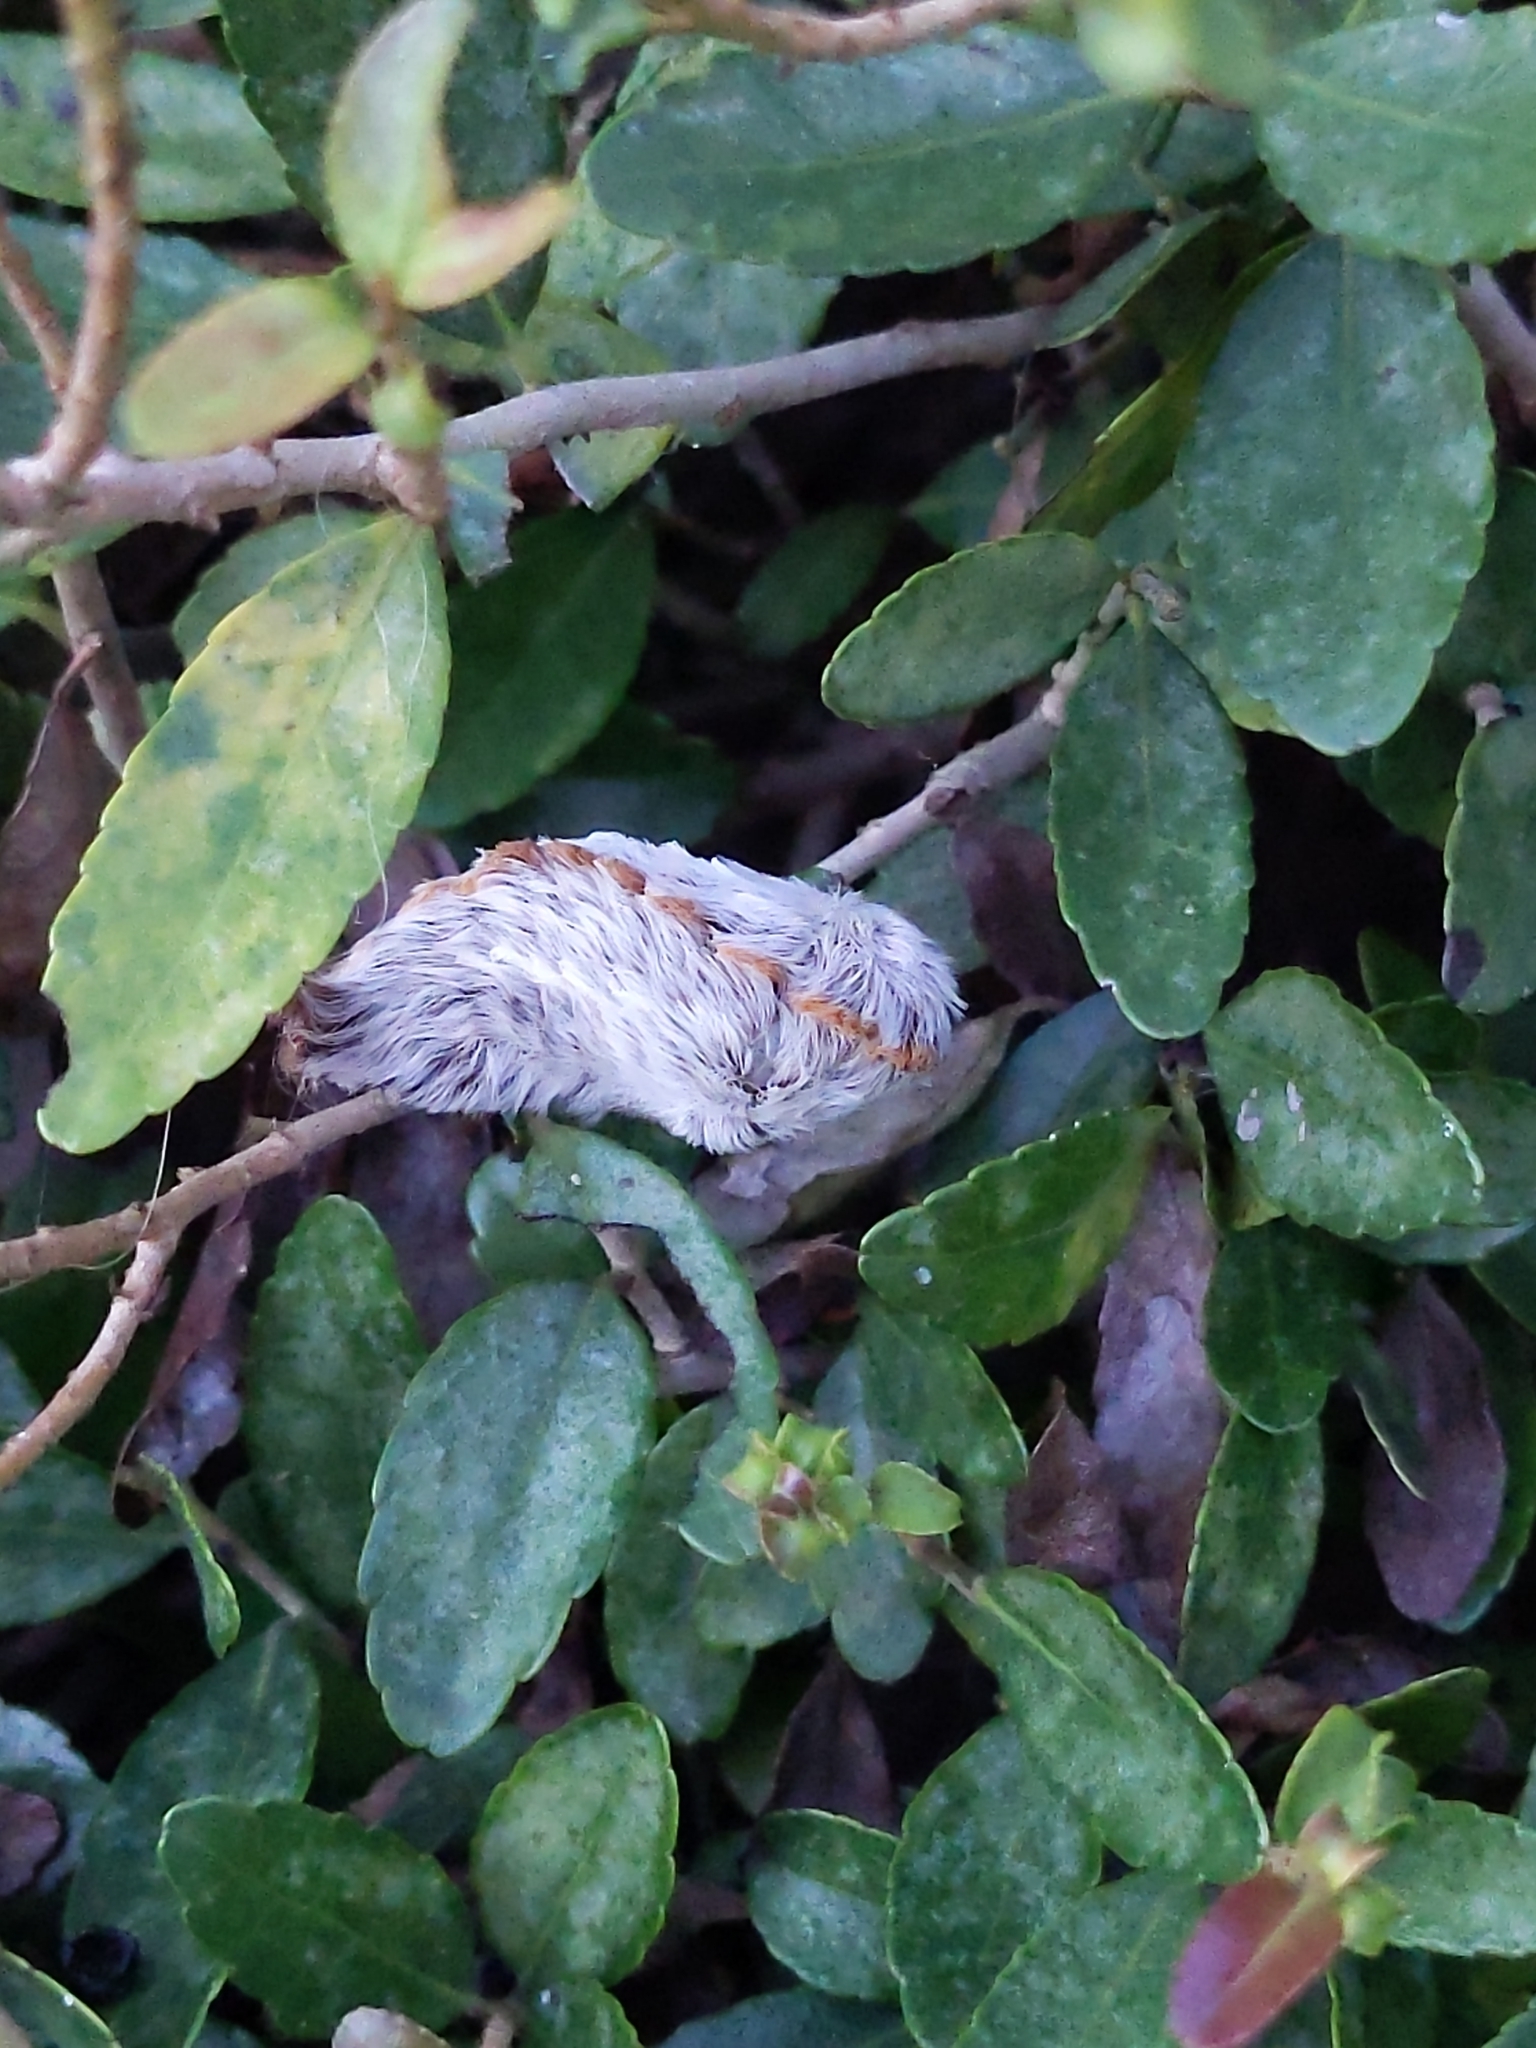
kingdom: Animalia
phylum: Arthropoda
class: Insecta
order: Lepidoptera
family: Megalopygidae
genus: Megalopyge
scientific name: Megalopyge opercularis
